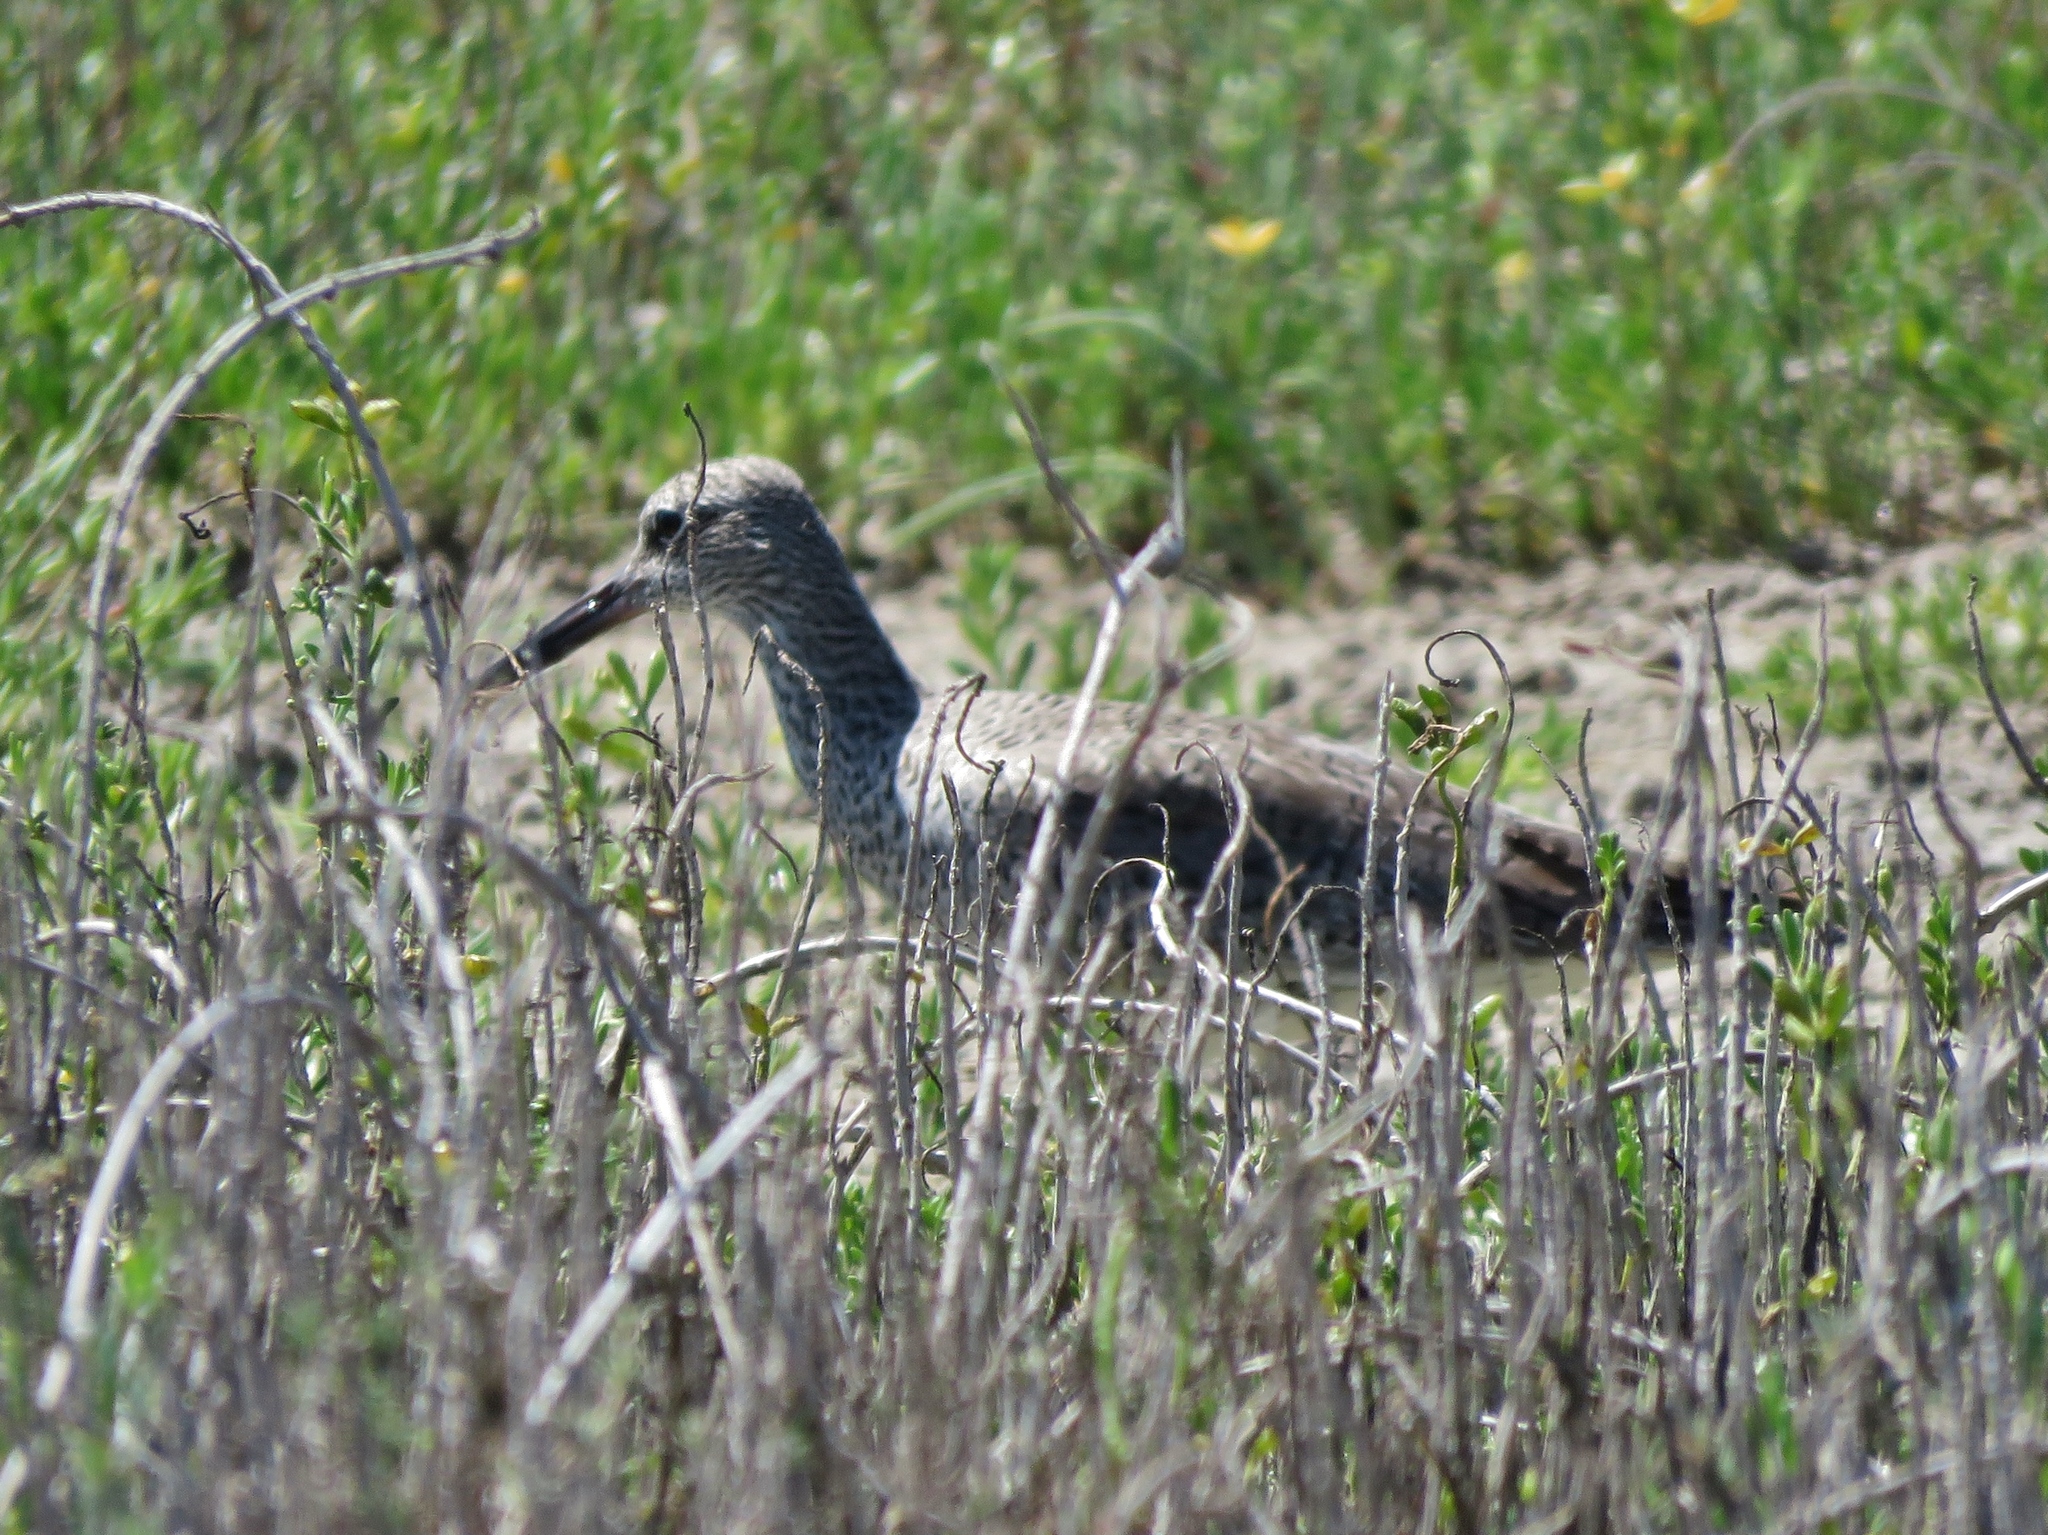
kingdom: Animalia
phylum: Chordata
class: Aves
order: Charadriiformes
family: Scolopacidae
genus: Tringa
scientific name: Tringa semipalmata
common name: Willet
